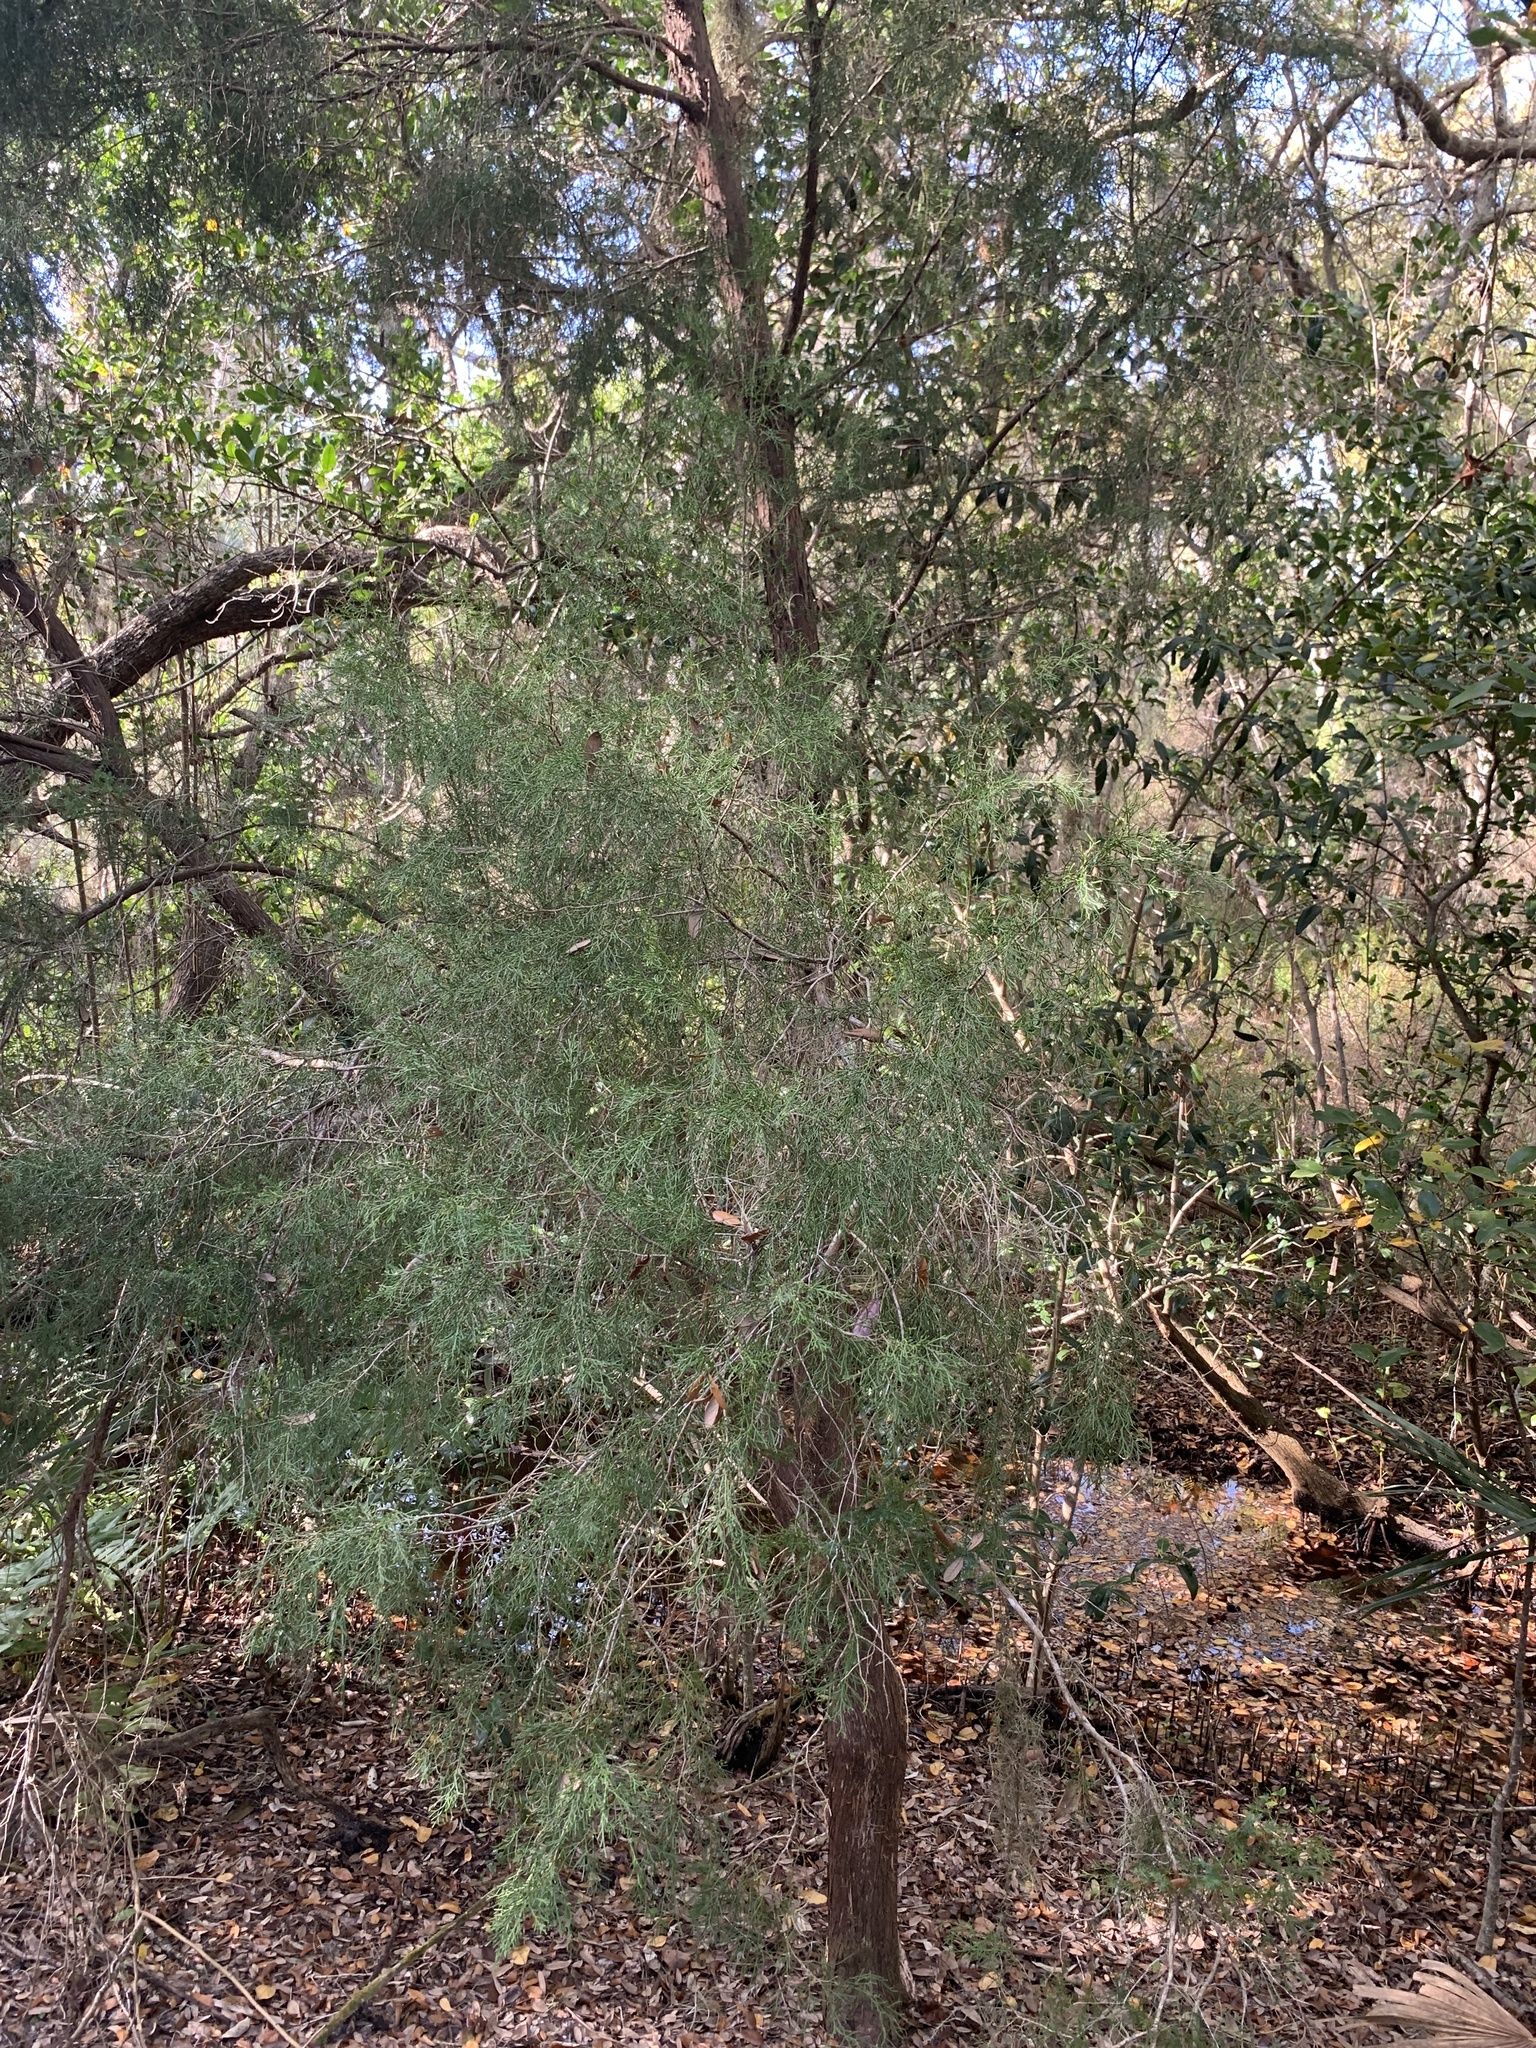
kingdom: Plantae
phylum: Tracheophyta
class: Pinopsida
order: Pinales
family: Cupressaceae
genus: Juniperus
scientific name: Juniperus virginiana
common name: Red juniper
